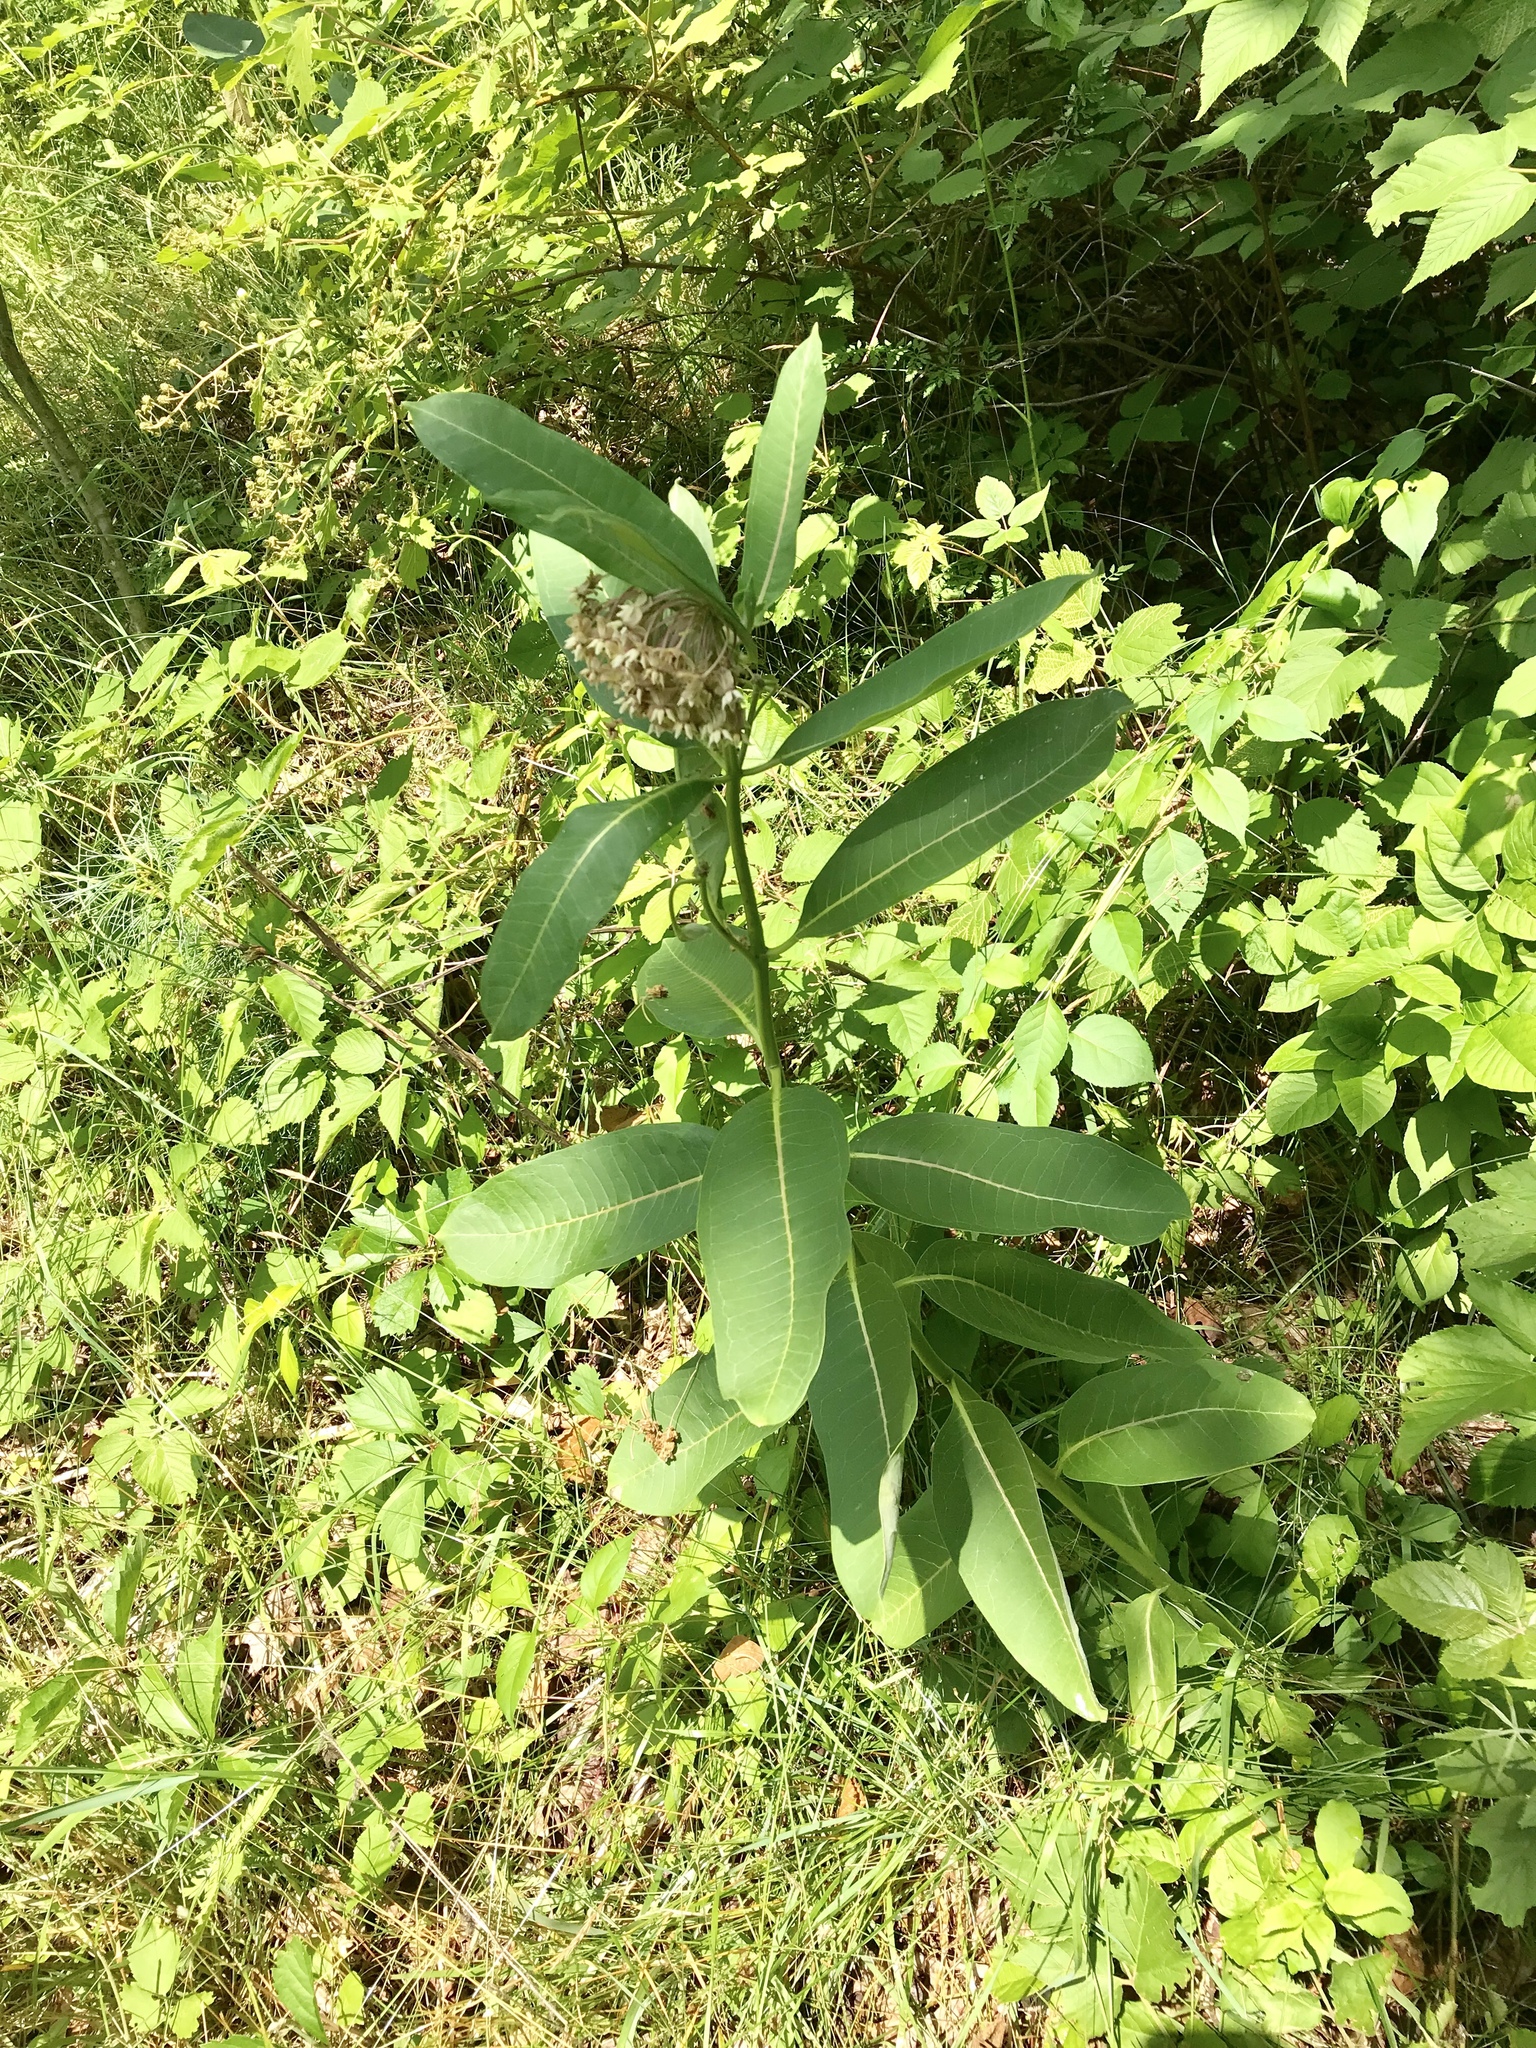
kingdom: Plantae
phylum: Tracheophyta
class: Magnoliopsida
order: Gentianales
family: Apocynaceae
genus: Asclepias
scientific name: Asclepias syriaca
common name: Common milkweed
